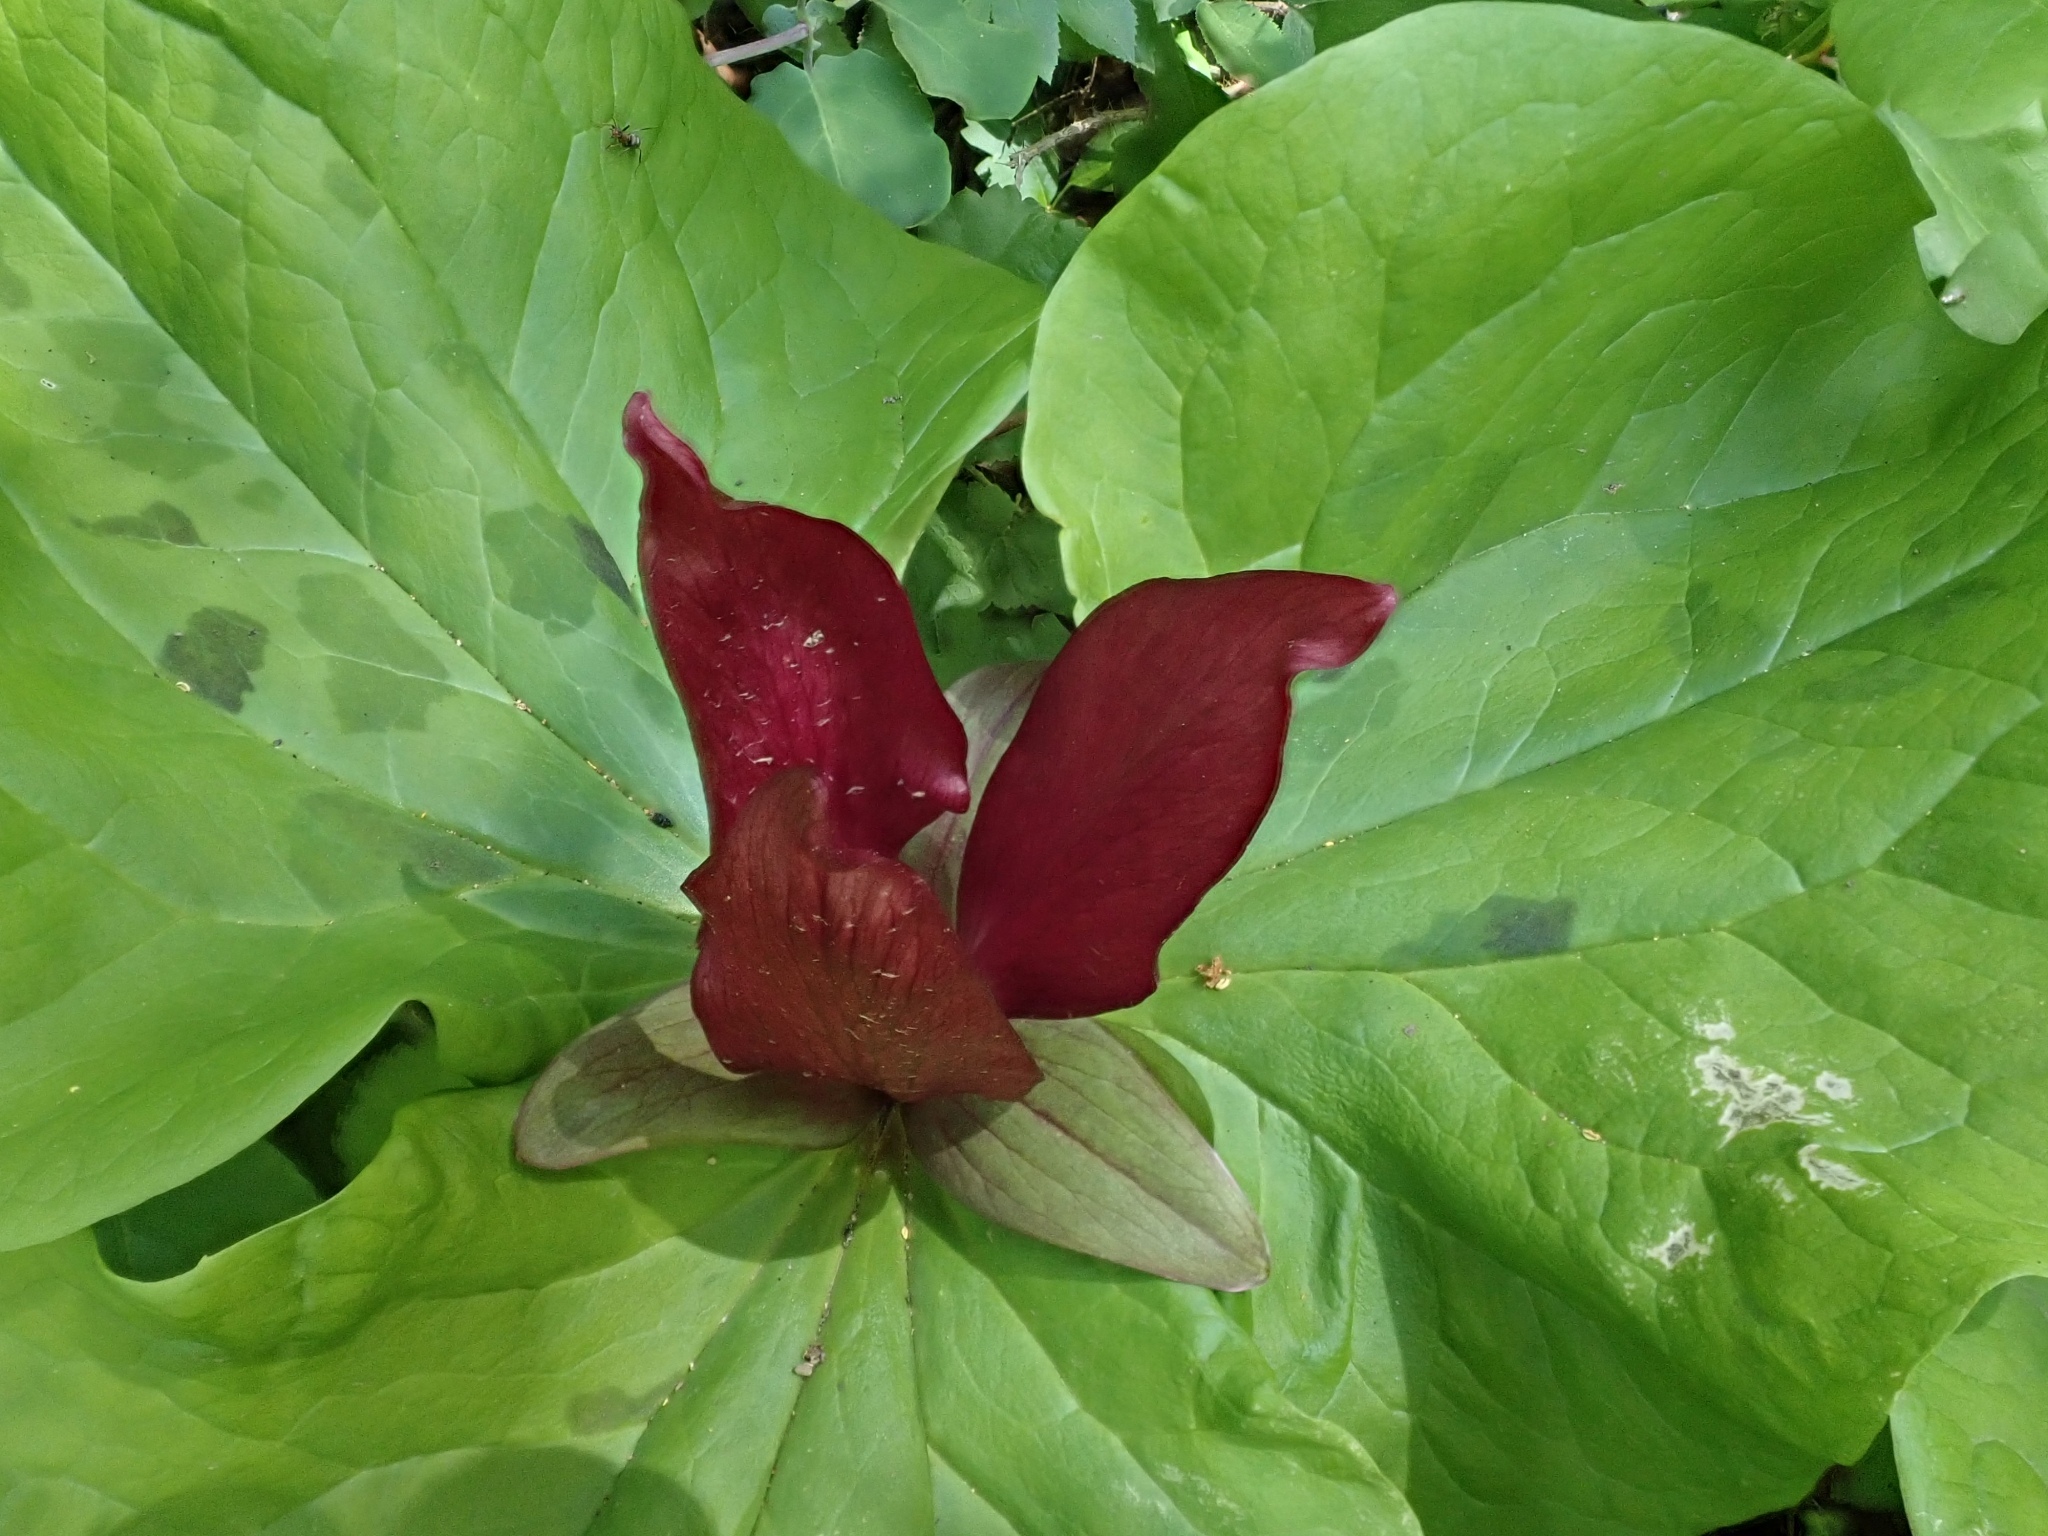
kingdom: Plantae
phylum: Tracheophyta
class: Liliopsida
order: Liliales
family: Melanthiaceae
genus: Trillium
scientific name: Trillium chloropetalum
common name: Giant trillium
